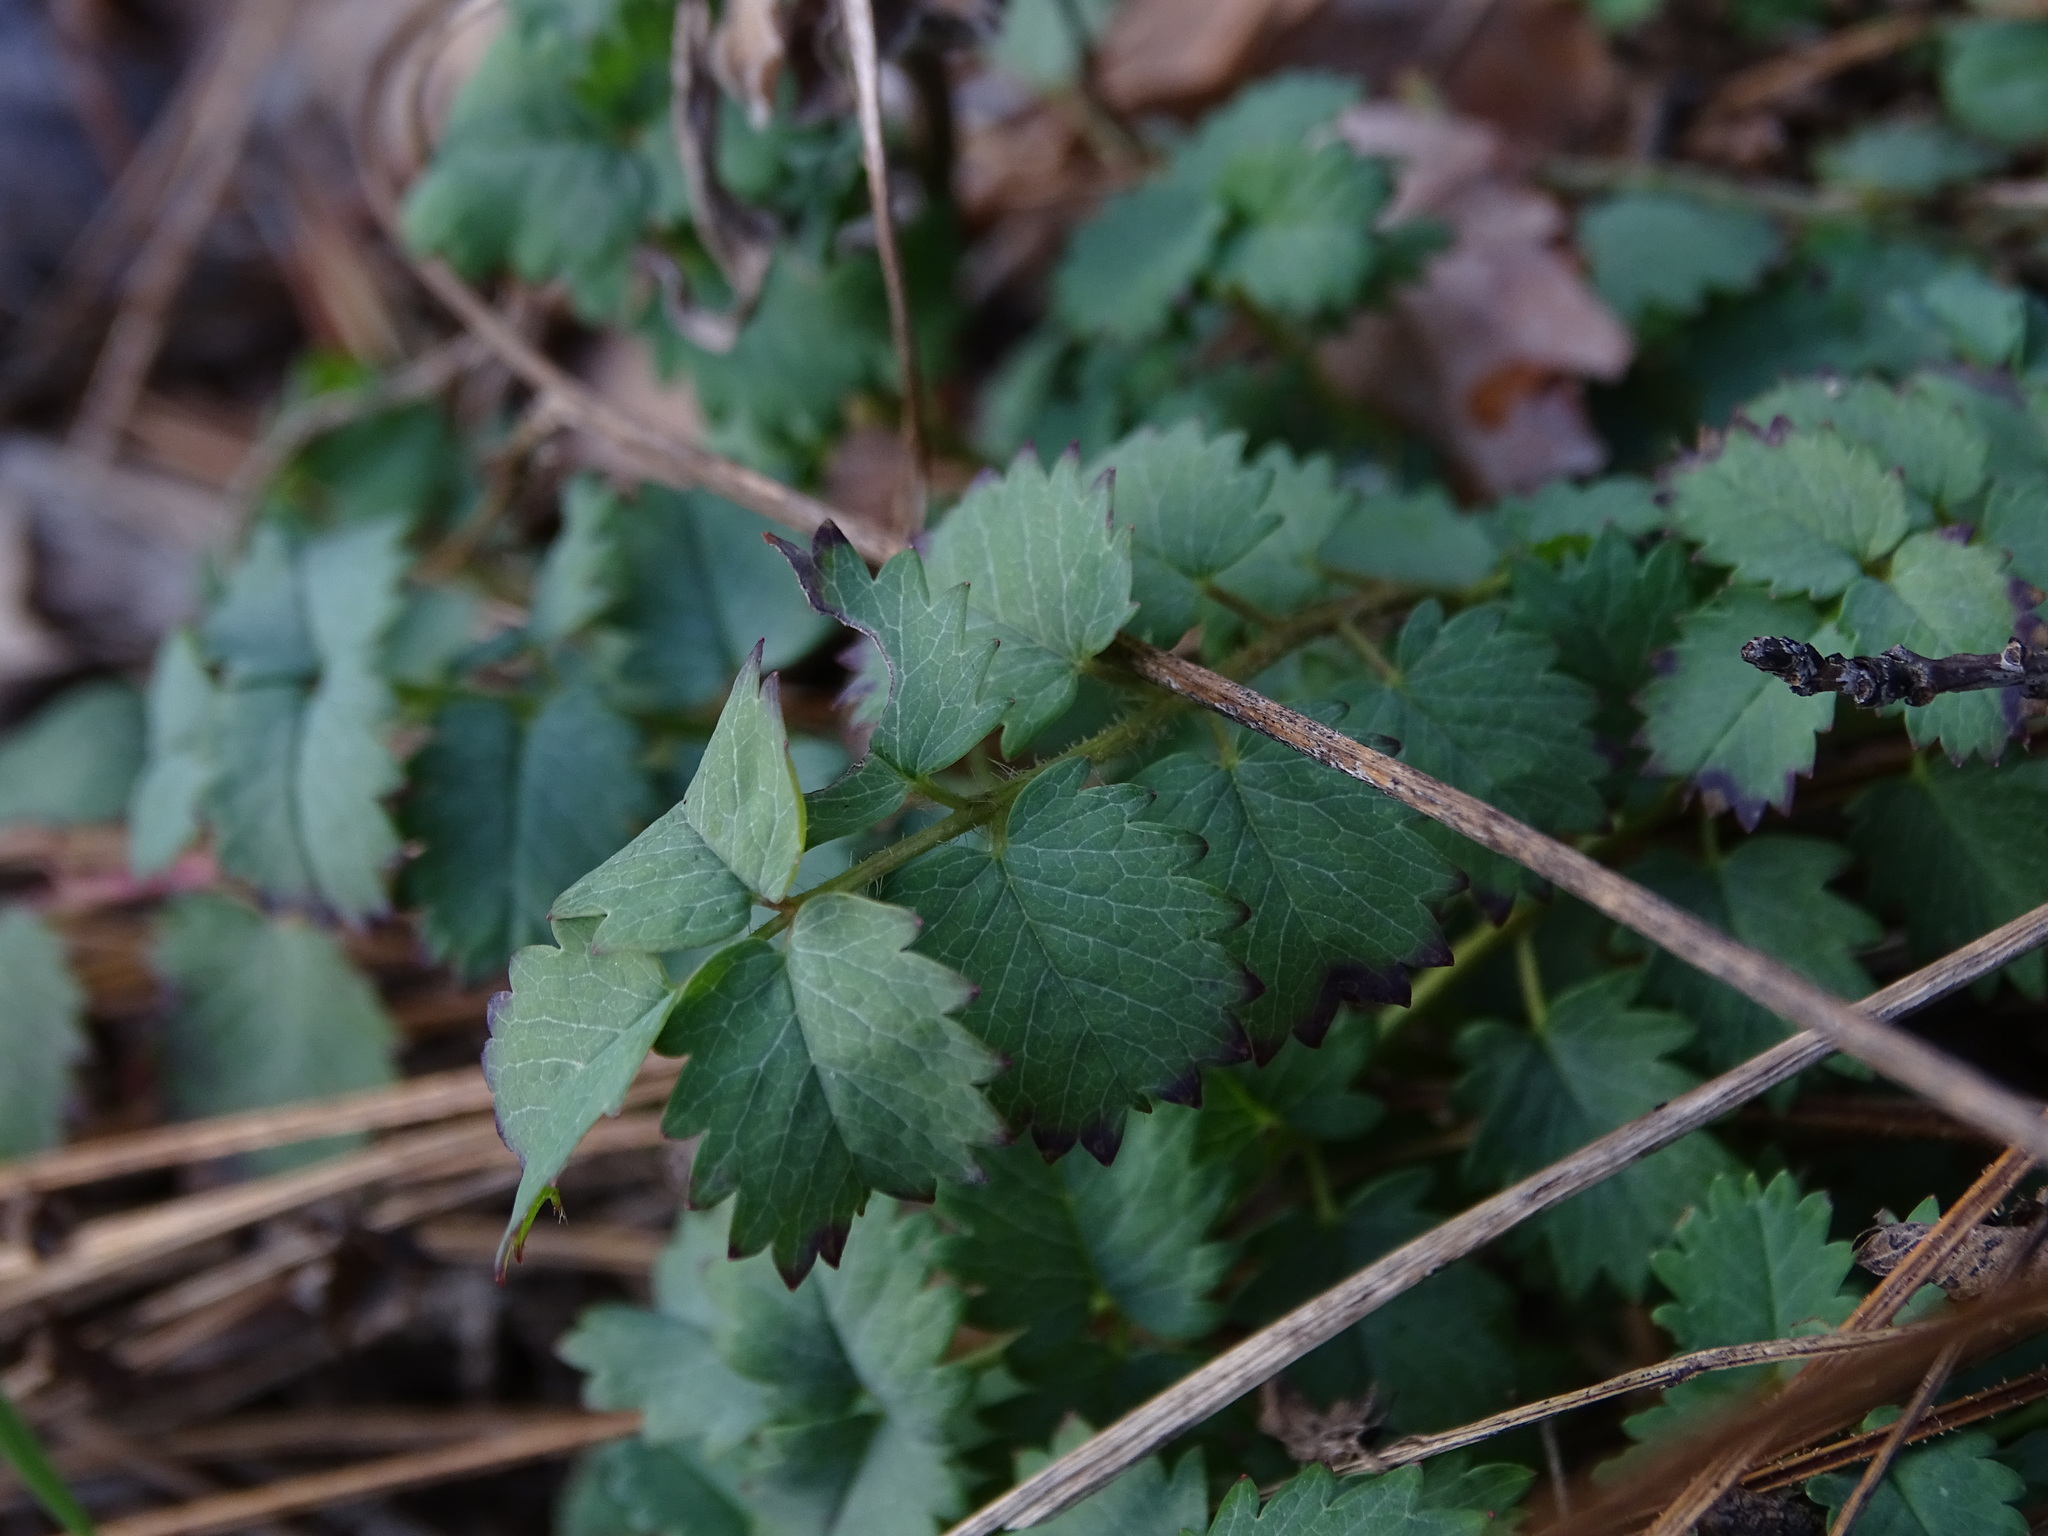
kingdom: Plantae
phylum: Tracheophyta
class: Magnoliopsida
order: Rosales
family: Rosaceae
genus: Poterium
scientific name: Poterium sanguisorba
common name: Salad burnet
